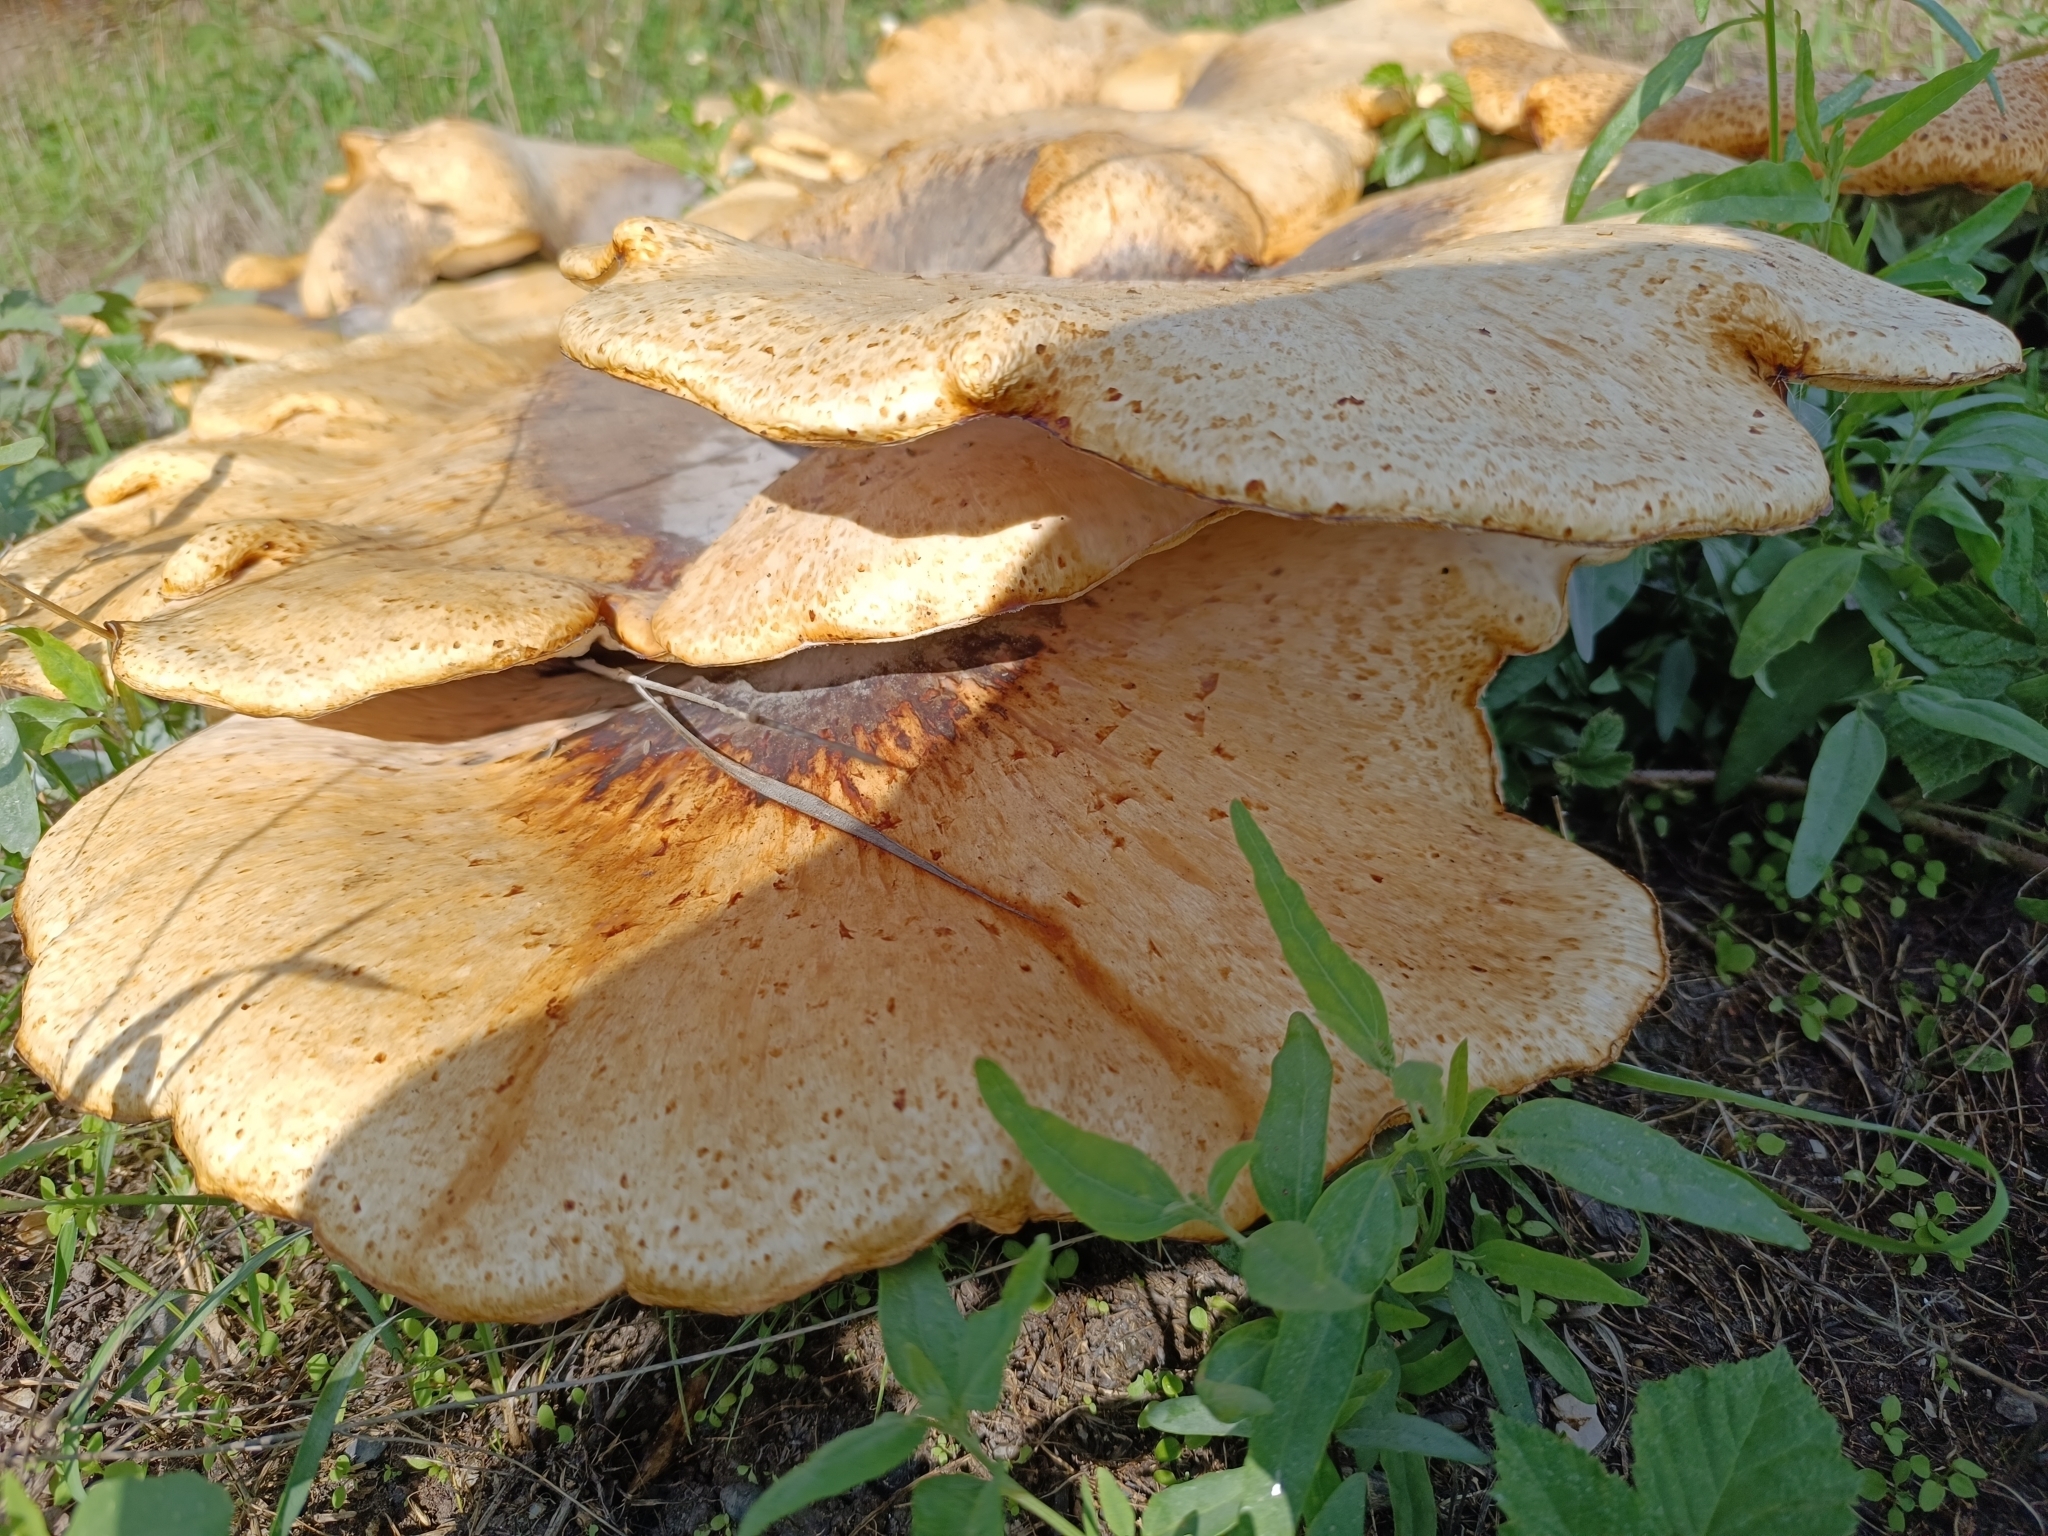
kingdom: Fungi
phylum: Basidiomycota
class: Agaricomycetes
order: Polyporales
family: Polyporaceae
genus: Cerioporus
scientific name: Cerioporus squamosus
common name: Dryad's saddle
